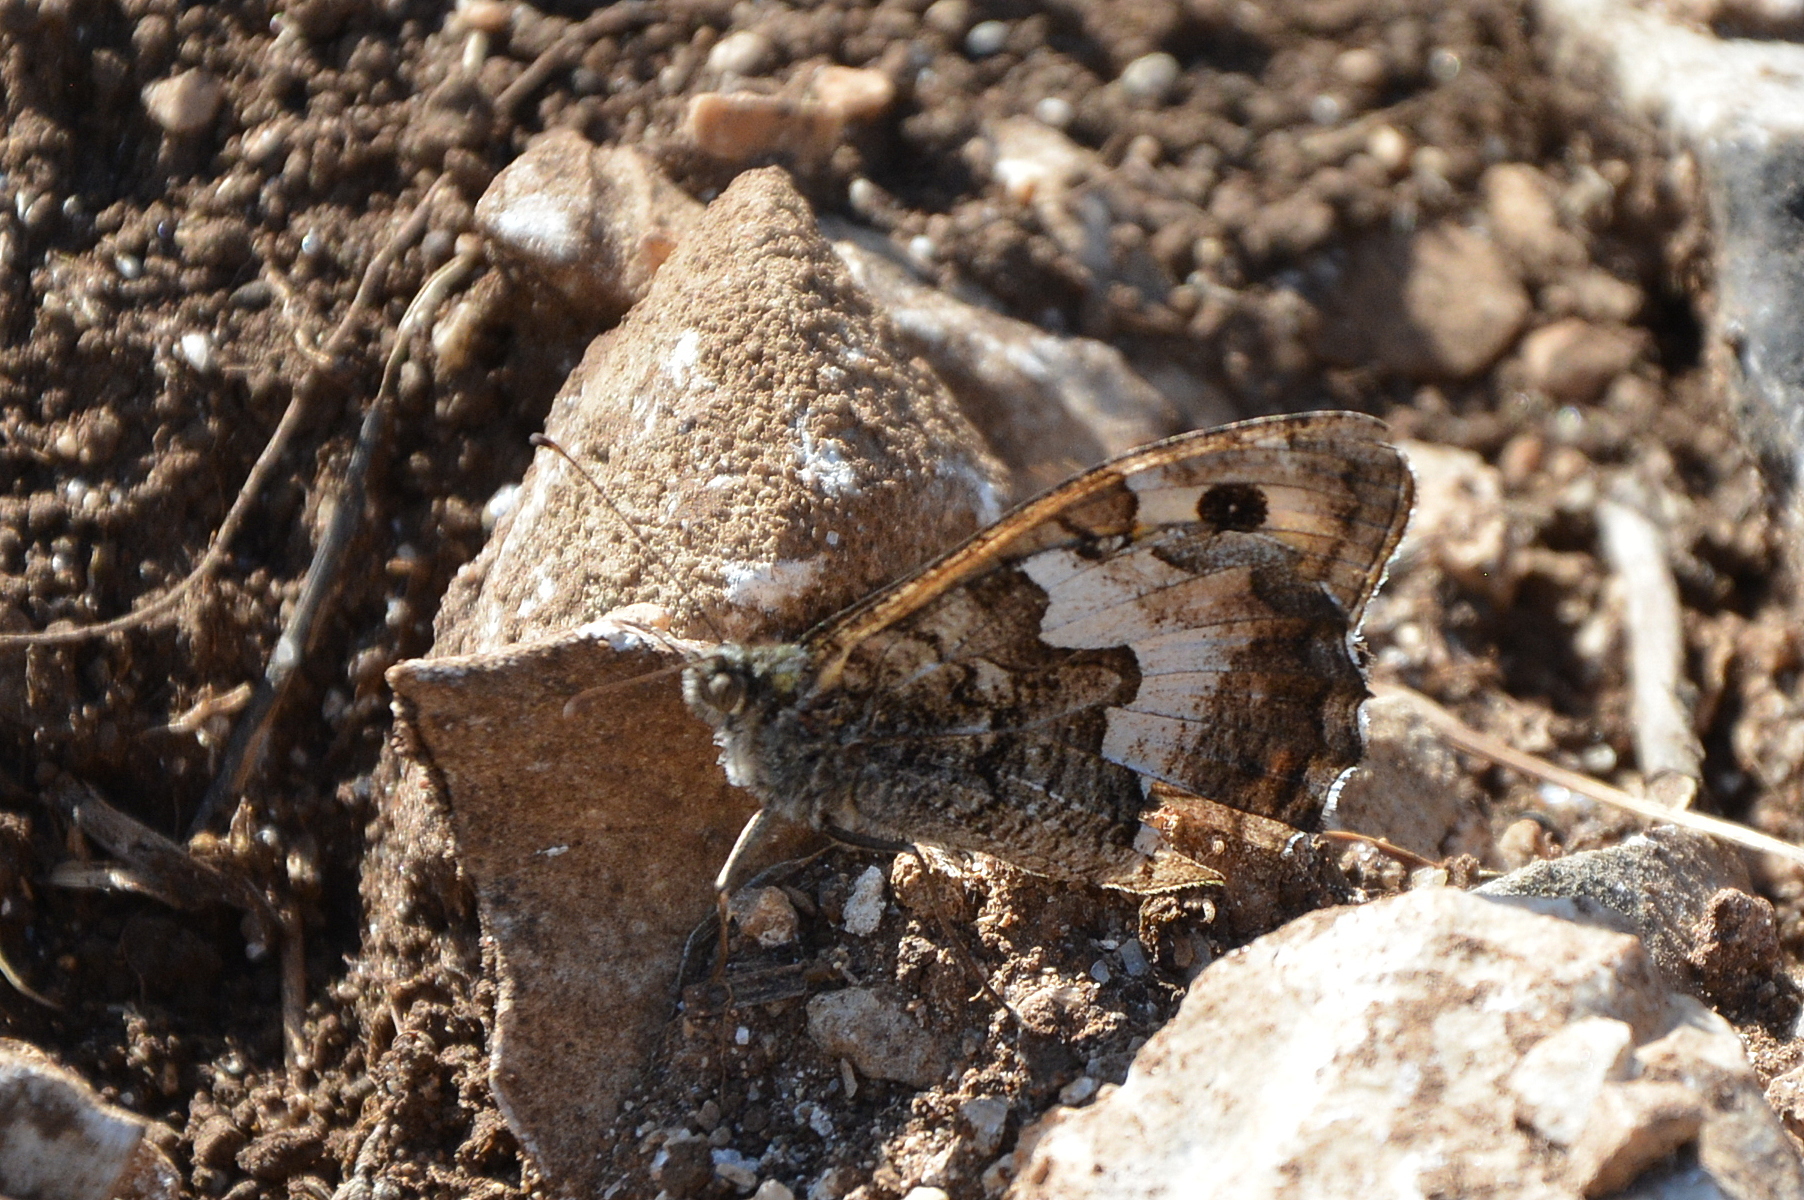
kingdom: Animalia
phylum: Arthropoda
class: Insecta
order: Lepidoptera
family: Nymphalidae
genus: Hipparchia
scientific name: Hipparchia semele
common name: Grayling
